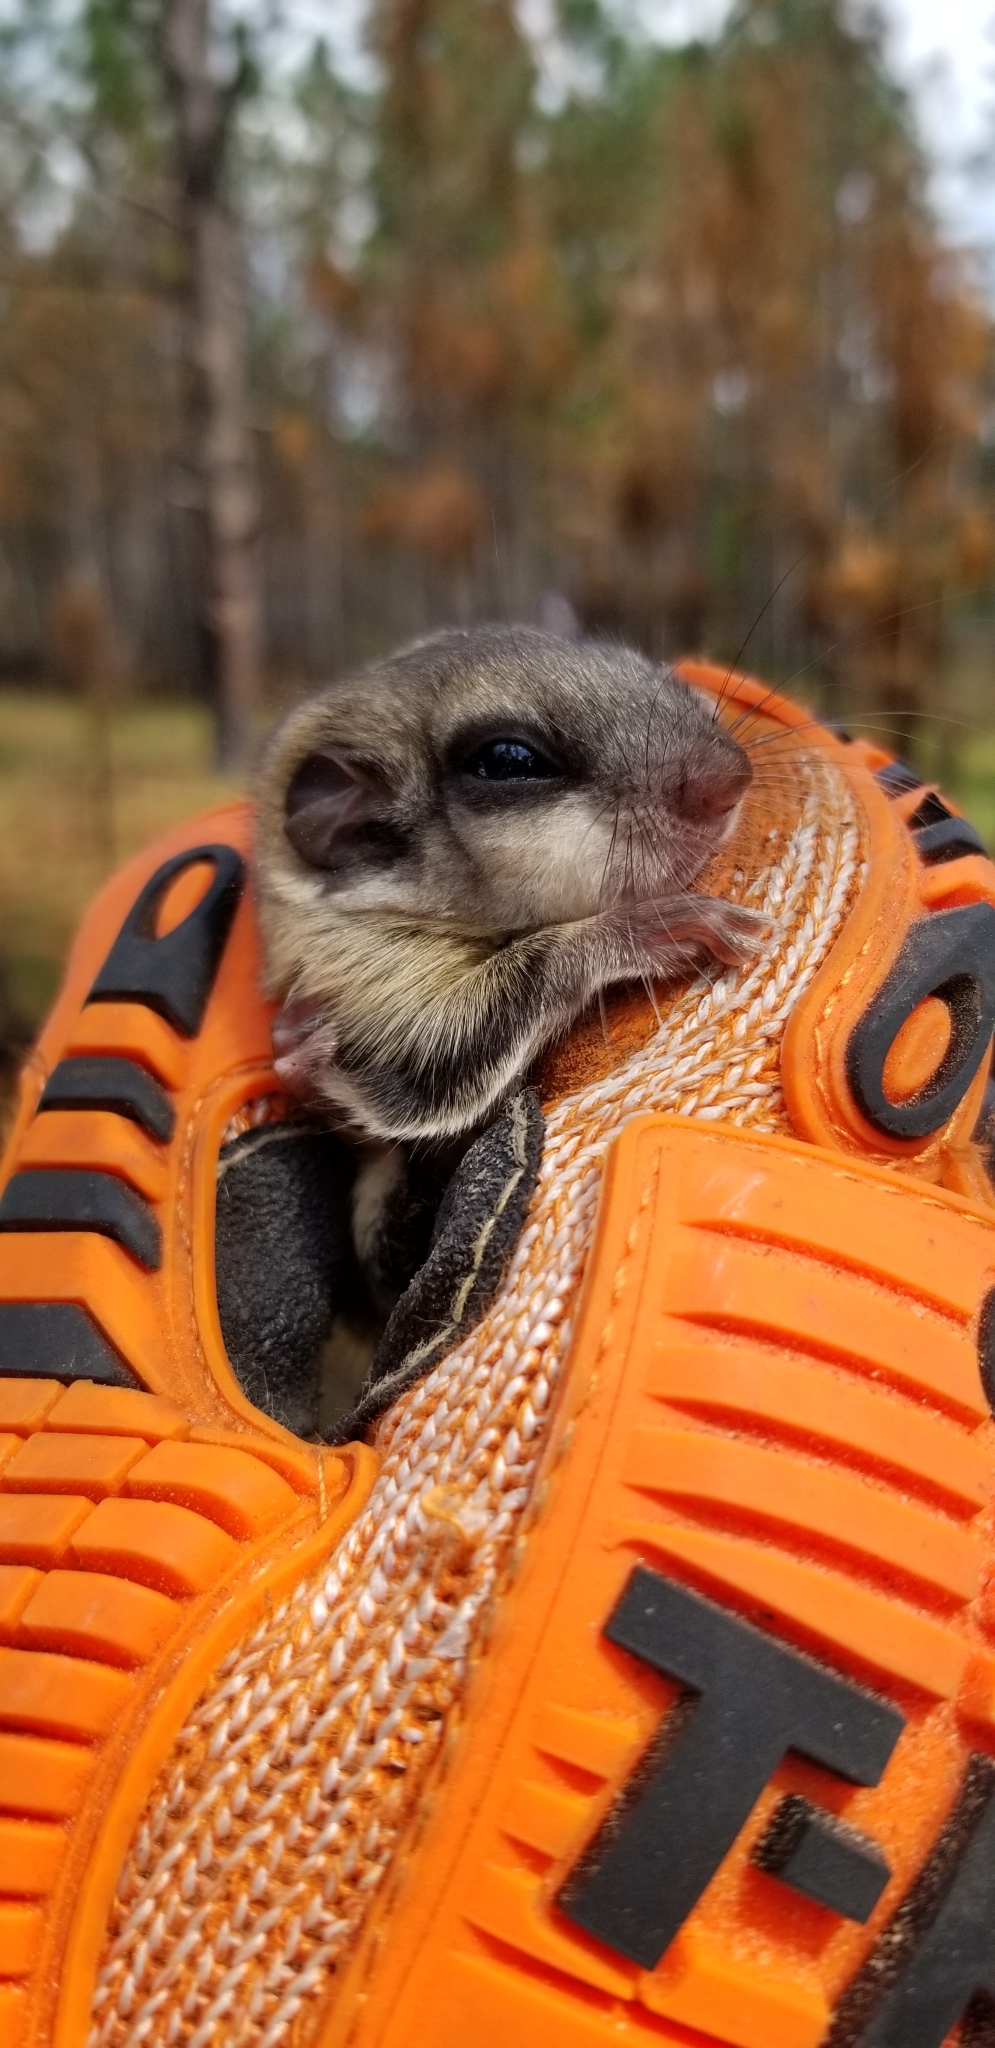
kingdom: Animalia
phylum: Chordata
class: Mammalia
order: Rodentia
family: Sciuridae
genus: Glaucomys
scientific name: Glaucomys volans
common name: Southern flying squirrel
